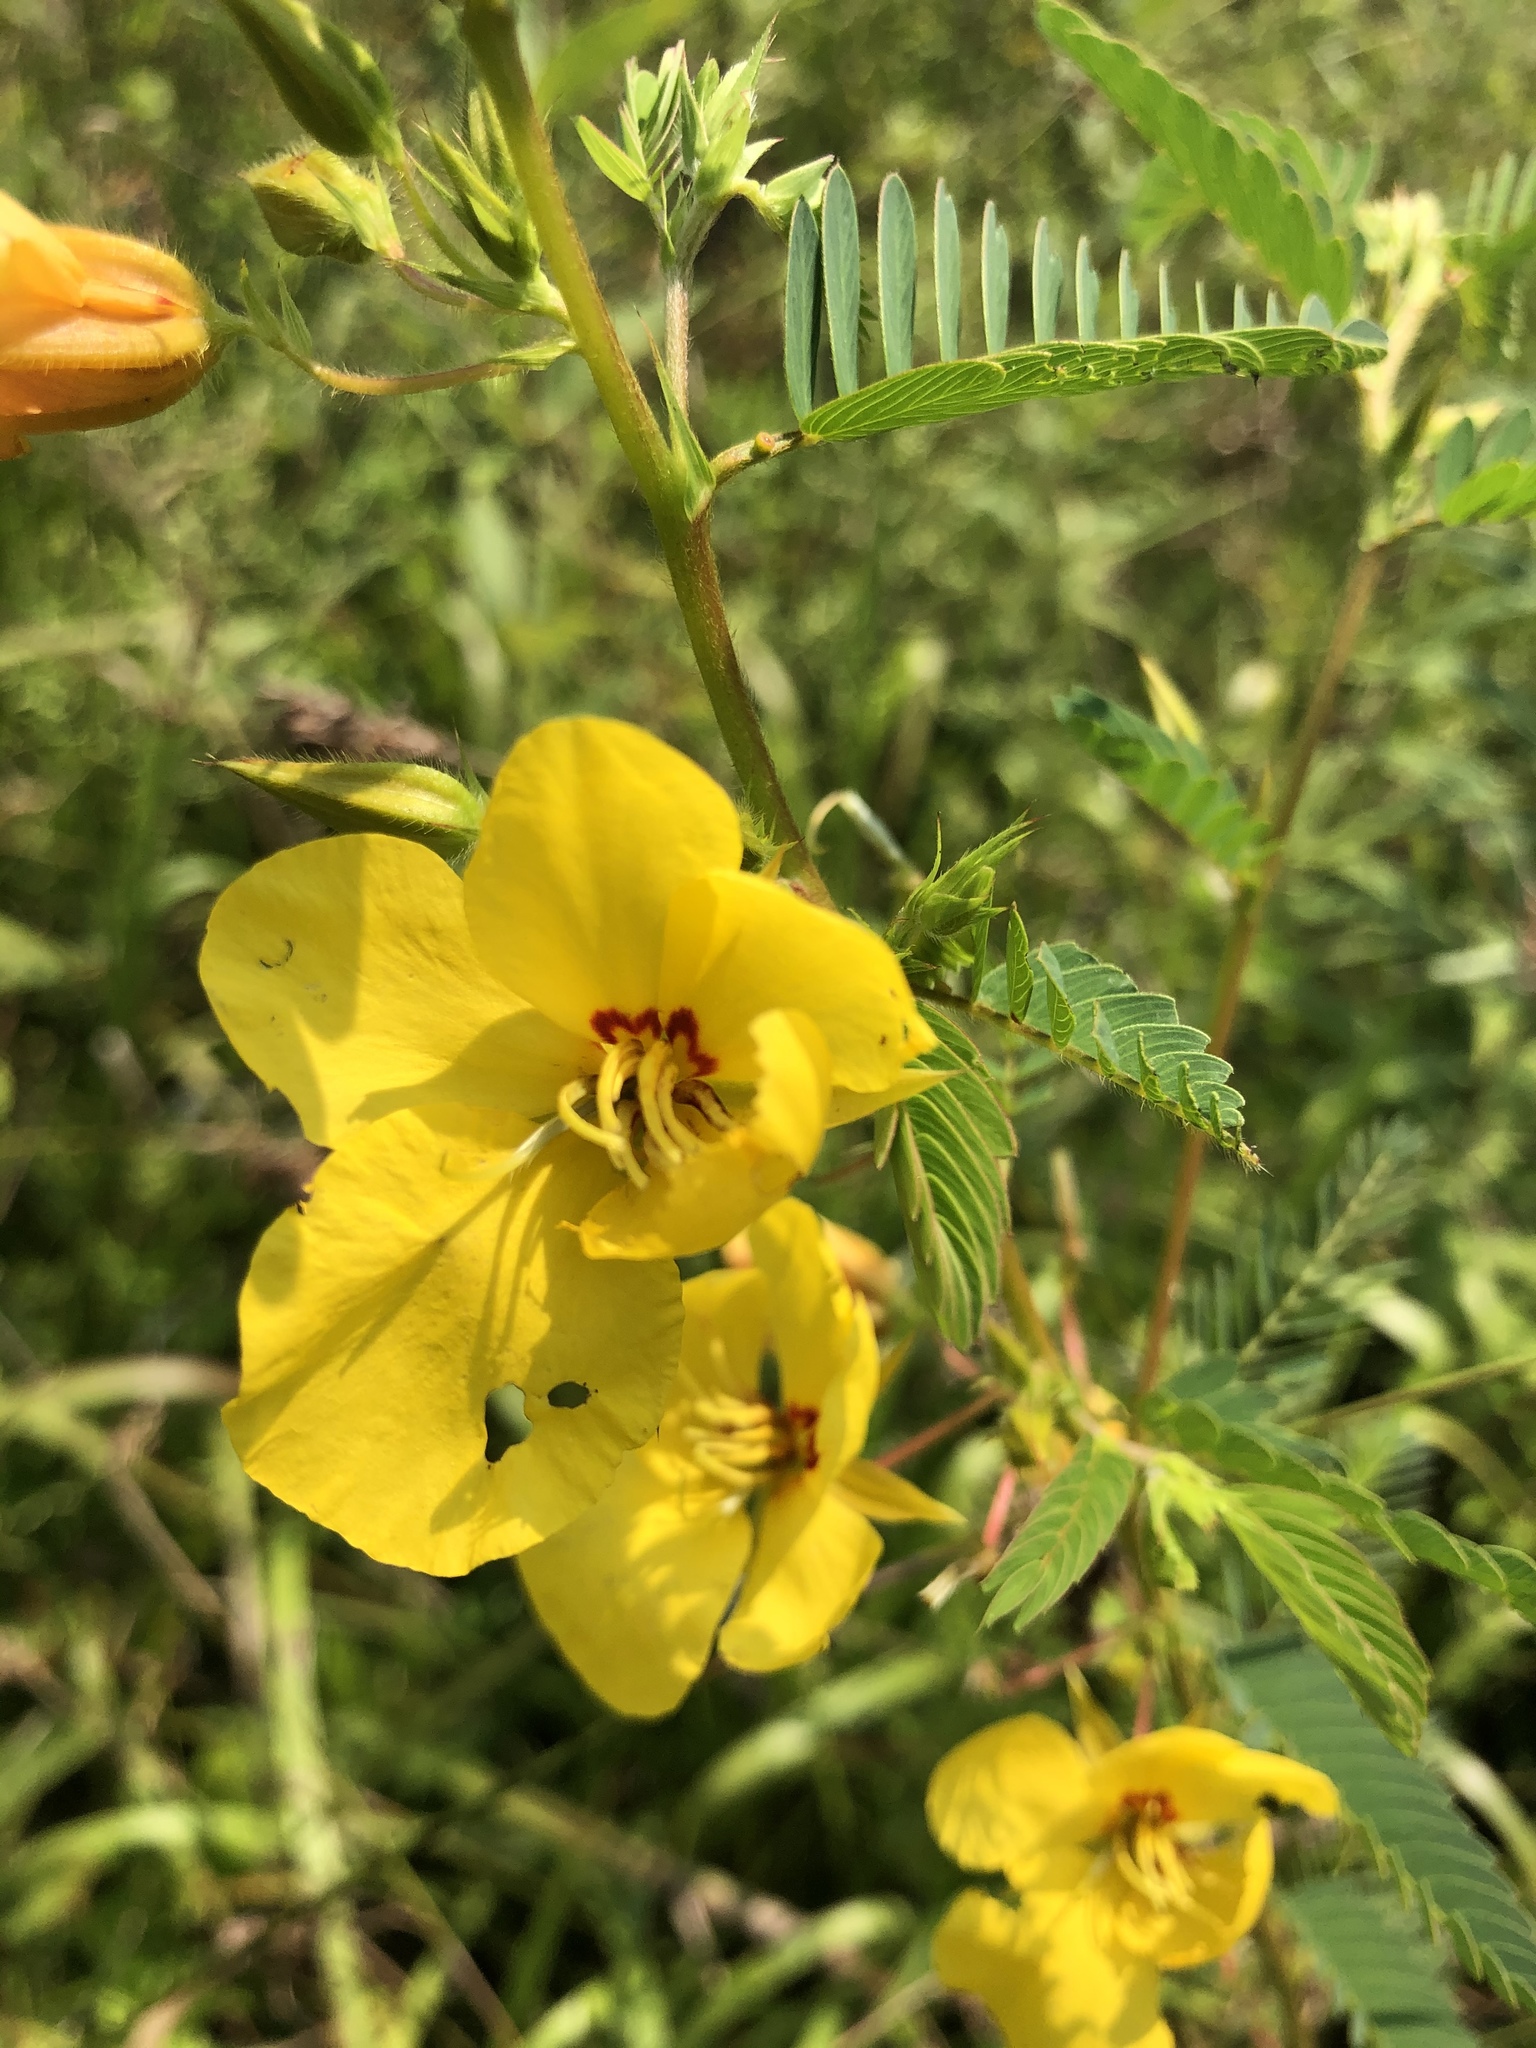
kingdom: Plantae
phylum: Tracheophyta
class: Magnoliopsida
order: Fabales
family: Fabaceae
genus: Chamaecrista
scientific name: Chamaecrista fasciculata
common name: Golden cassia
